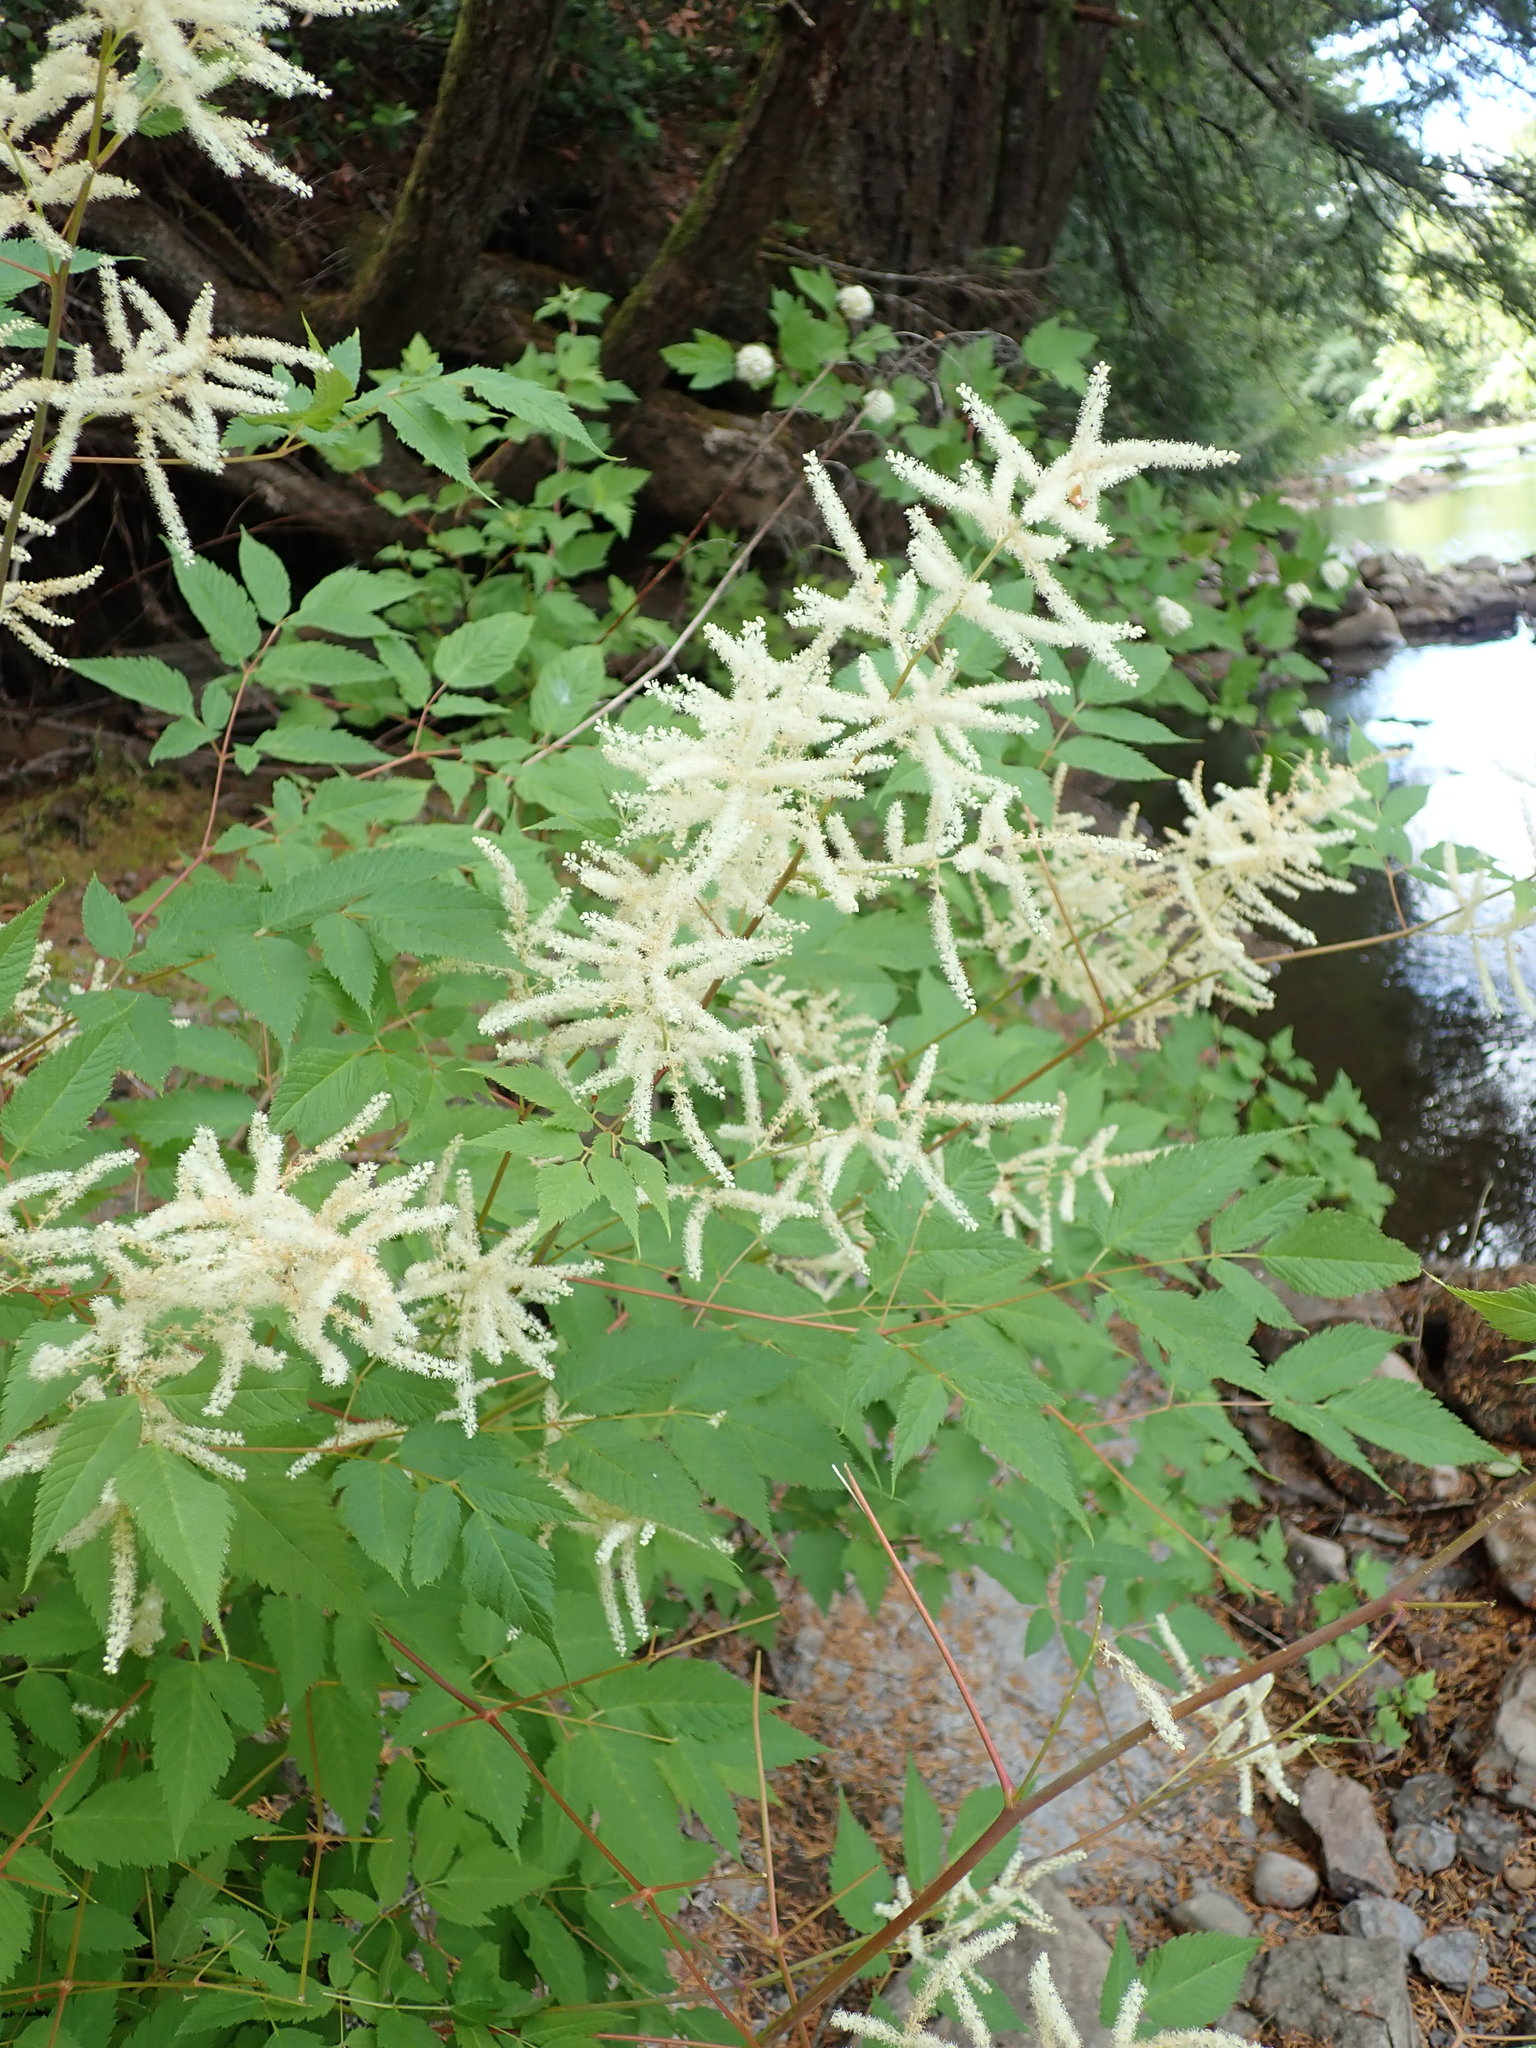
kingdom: Plantae
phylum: Tracheophyta
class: Magnoliopsida
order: Rosales
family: Rosaceae
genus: Aruncus
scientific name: Aruncus dioicus
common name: Buck's-beard
